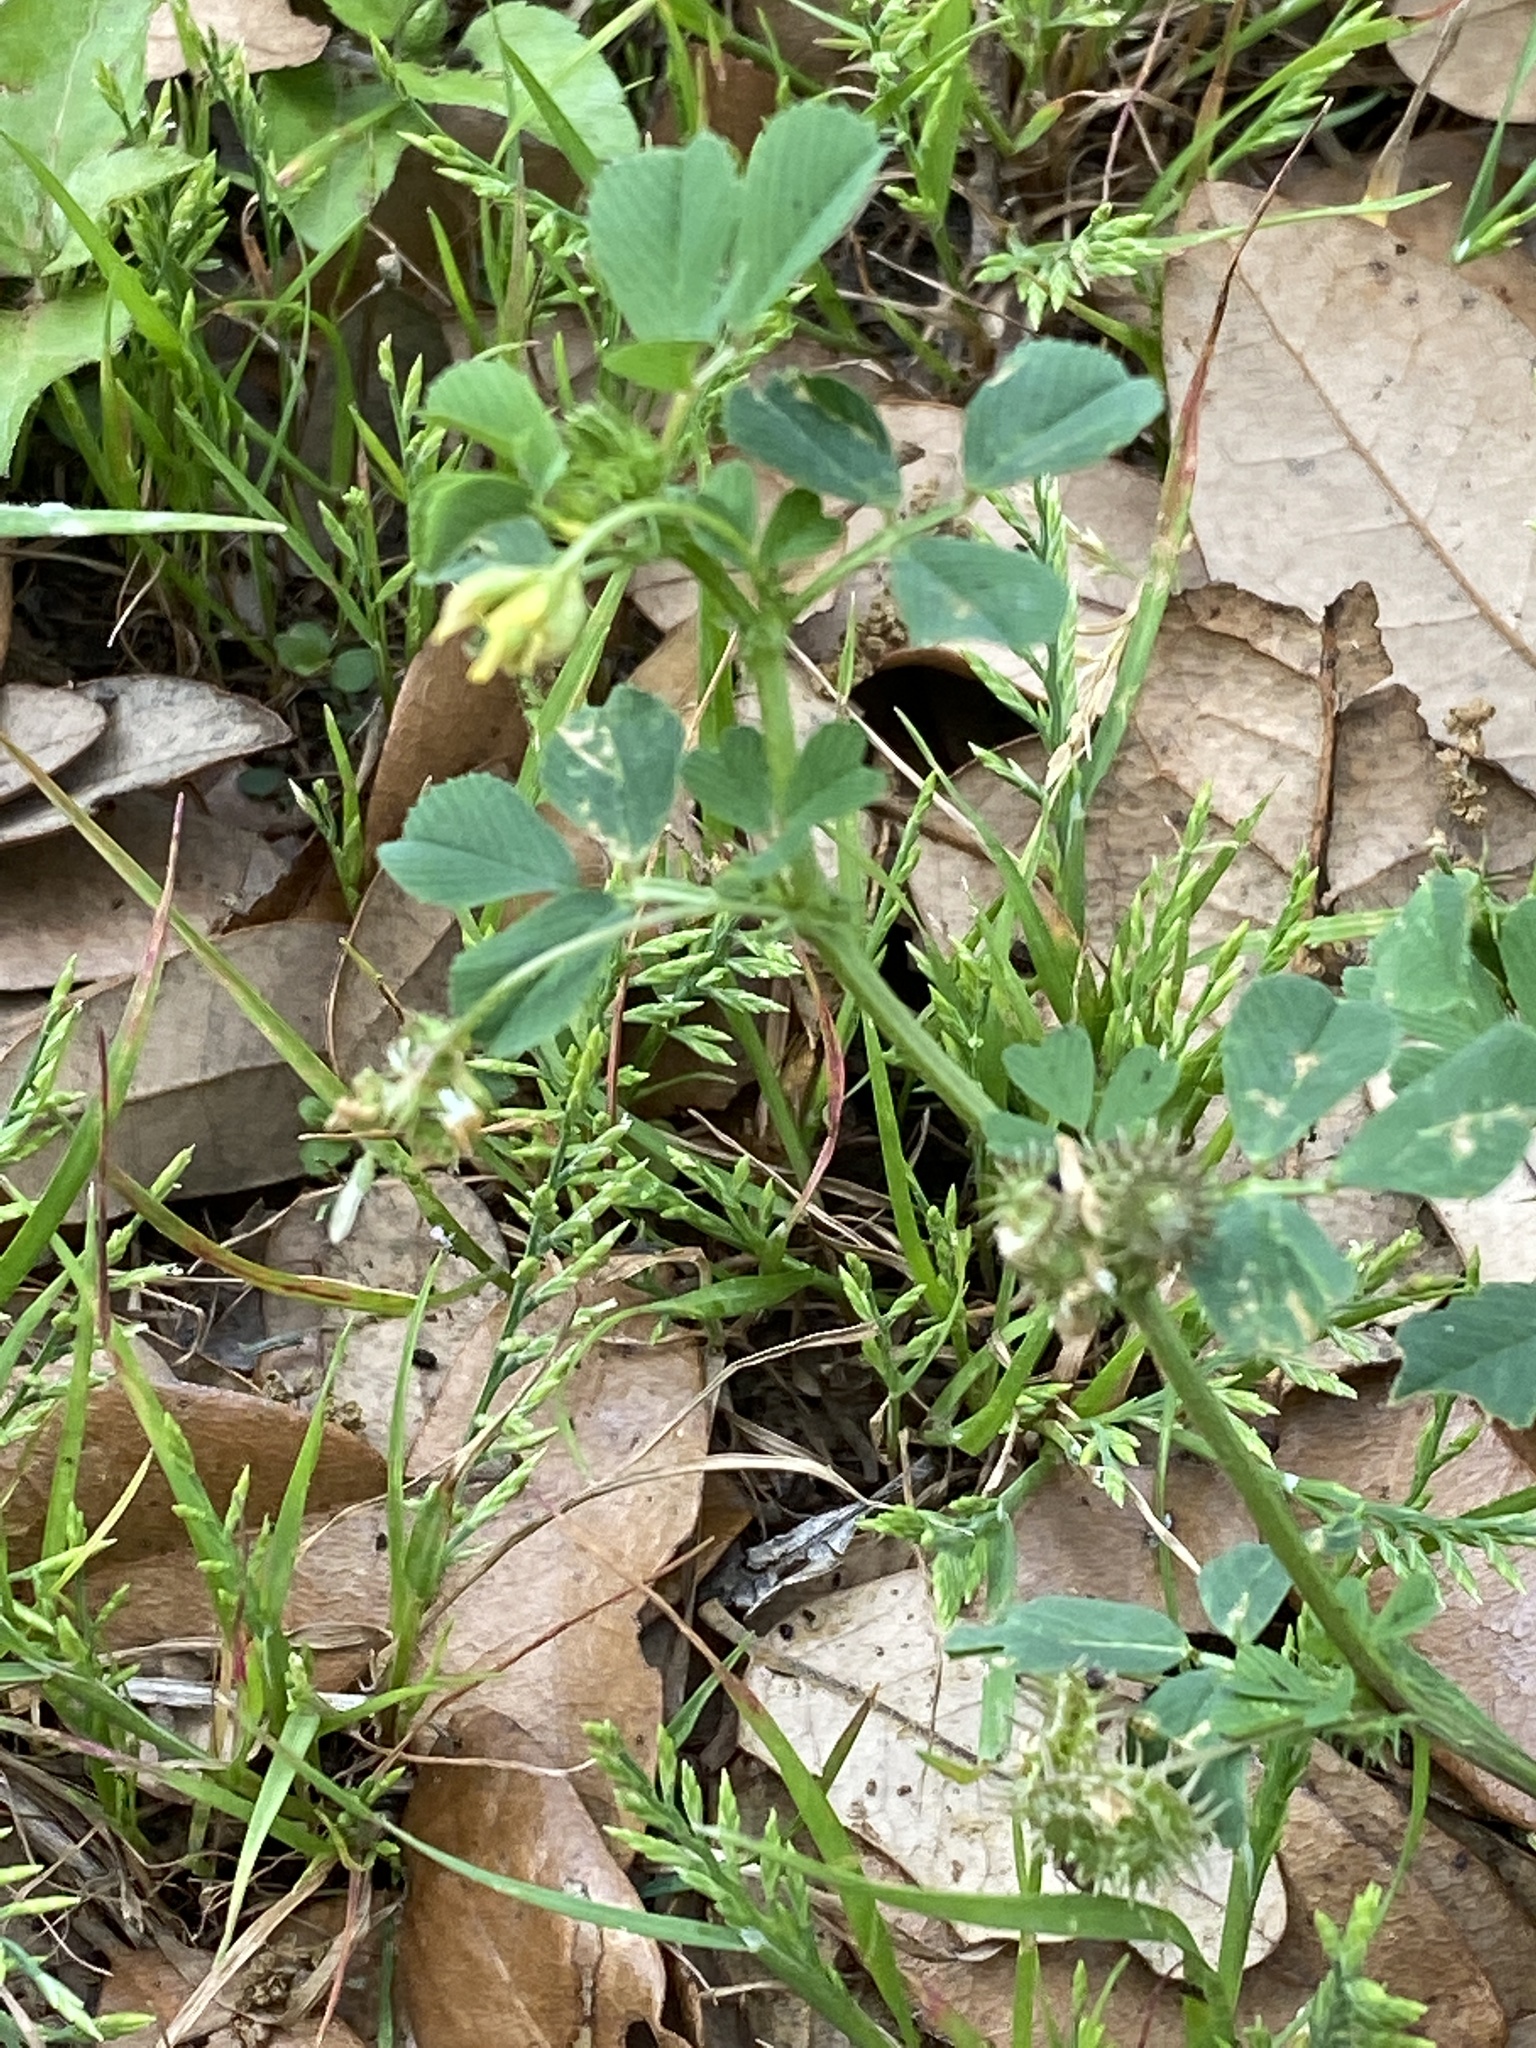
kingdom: Plantae
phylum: Tracheophyta
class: Magnoliopsida
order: Fabales
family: Fabaceae
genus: Medicago
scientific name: Medicago polymorpha
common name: Burclover
